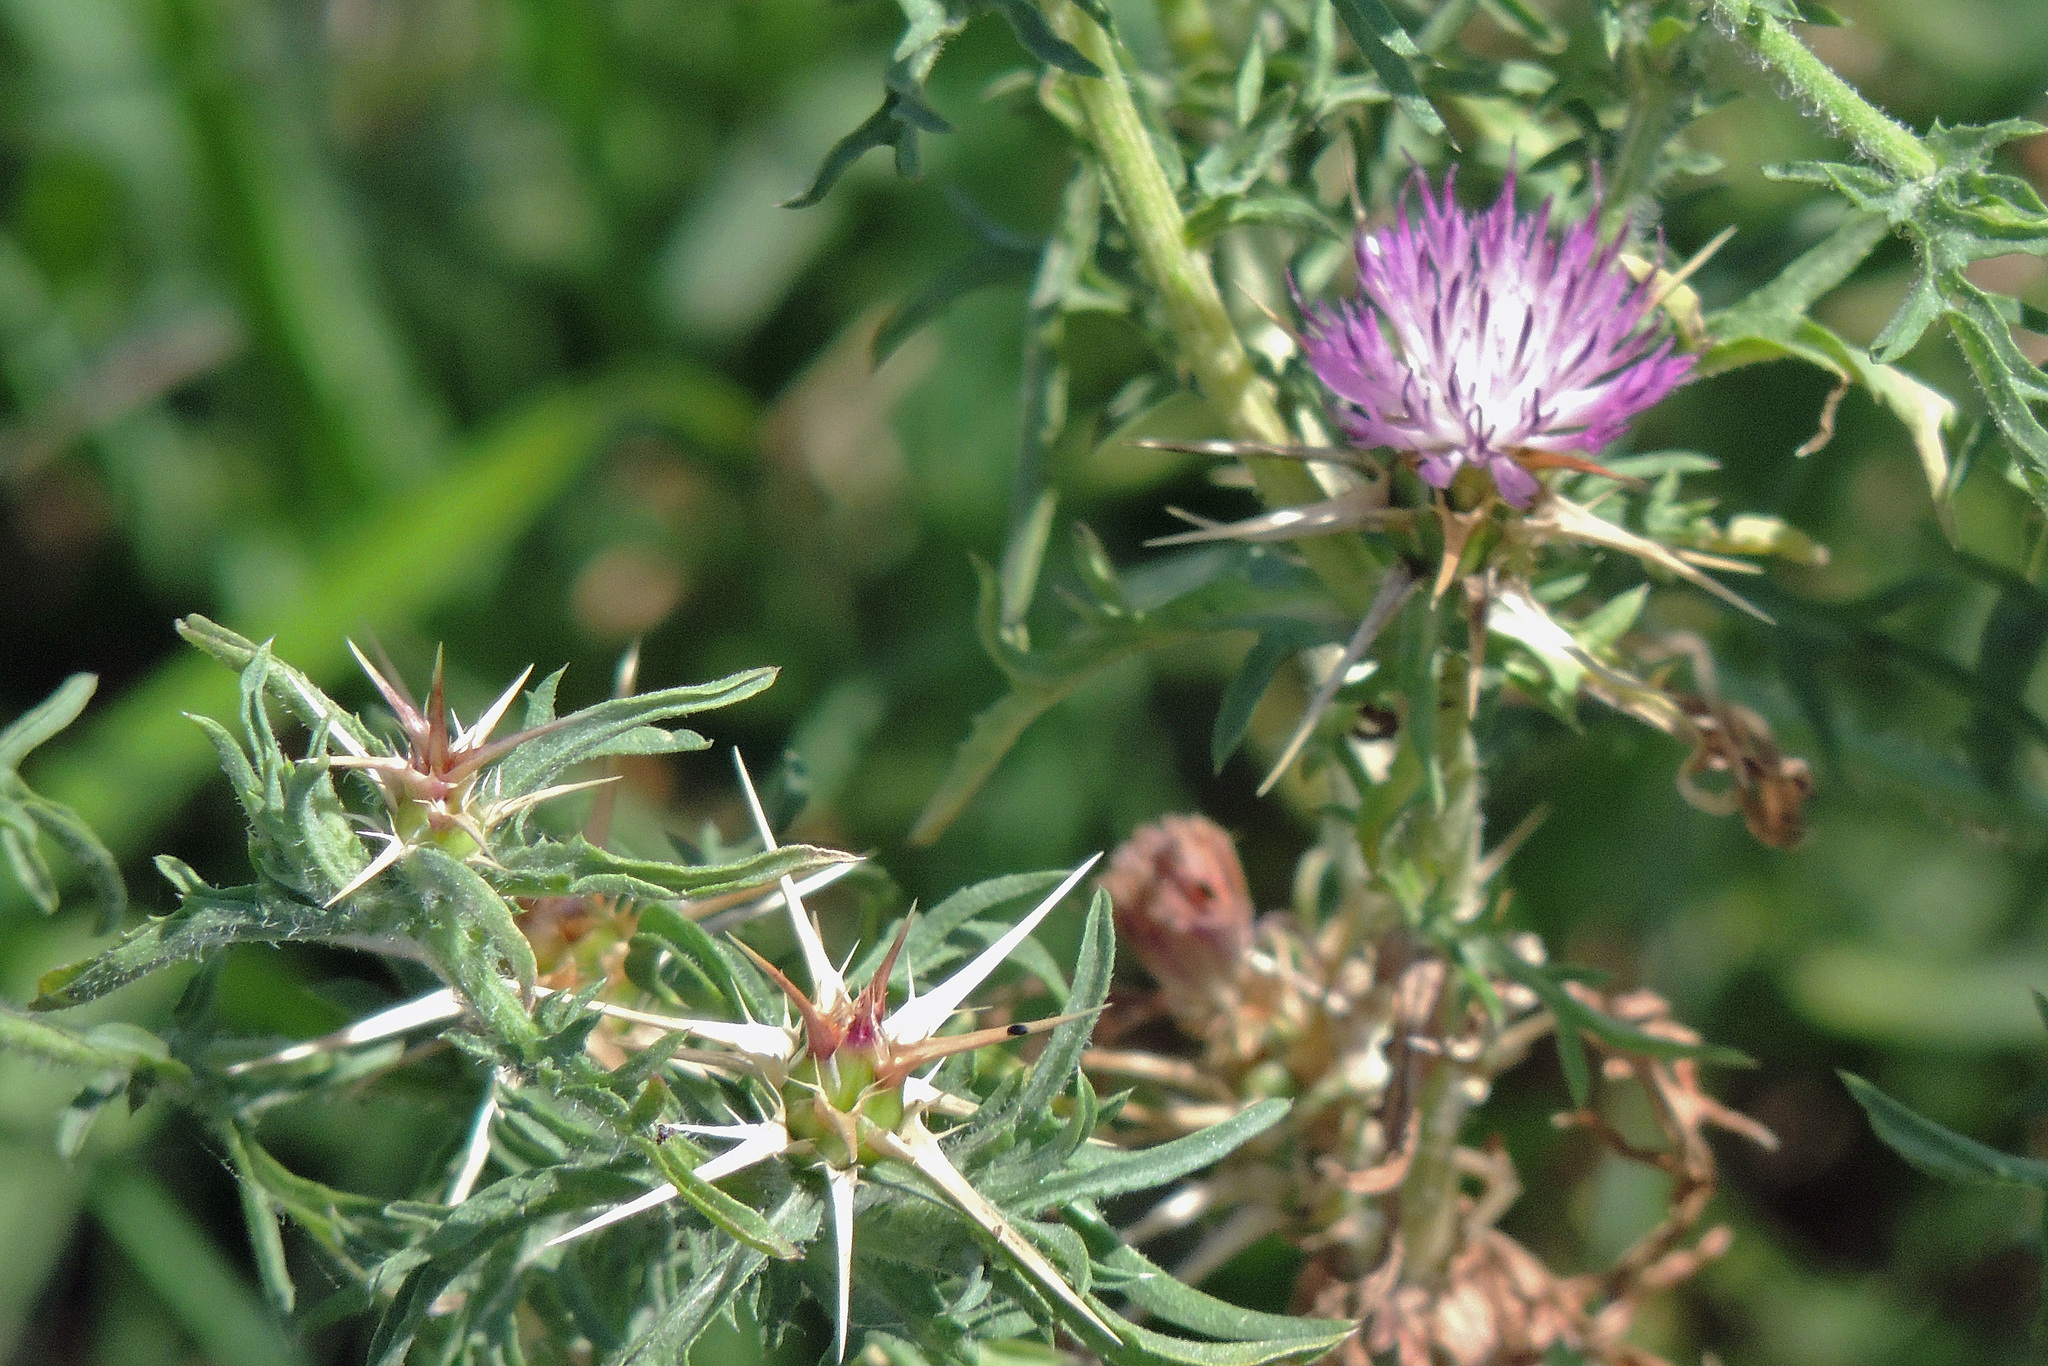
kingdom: Plantae
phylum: Tracheophyta
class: Magnoliopsida
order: Asterales
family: Asteraceae
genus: Centaurea
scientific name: Centaurea calcitrapa
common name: Red star-thistle
